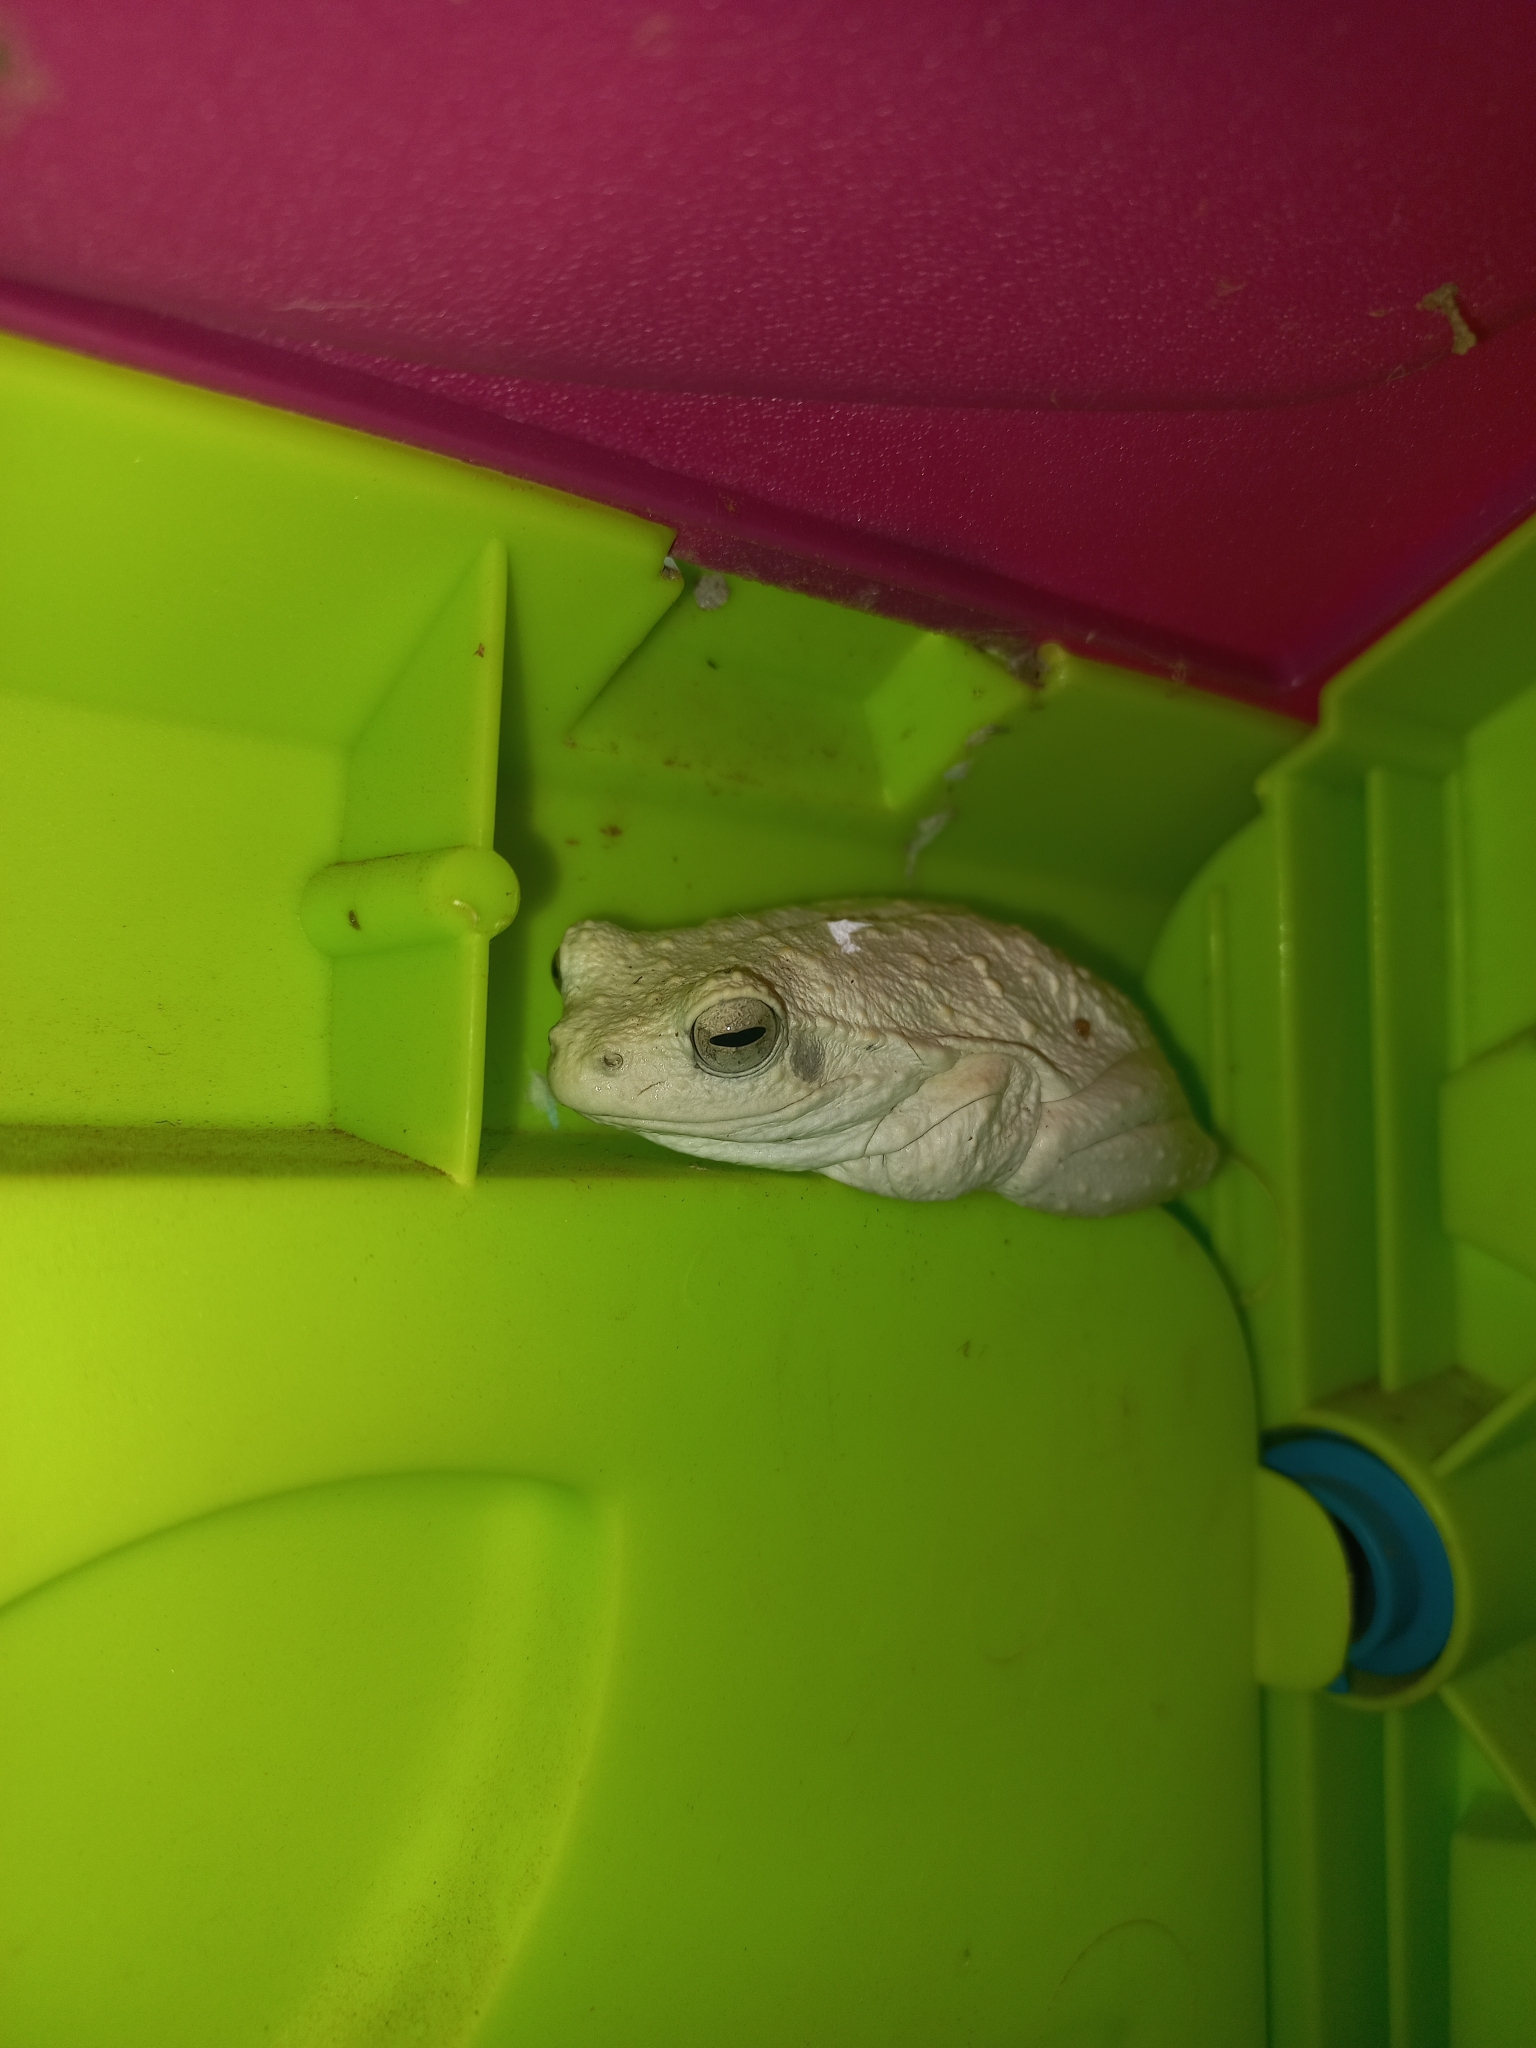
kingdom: Animalia
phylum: Chordata
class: Amphibia
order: Anura
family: Rhacophoridae
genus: Chiromantis
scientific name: Chiromantis xerampelina
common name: African gray treefrog
